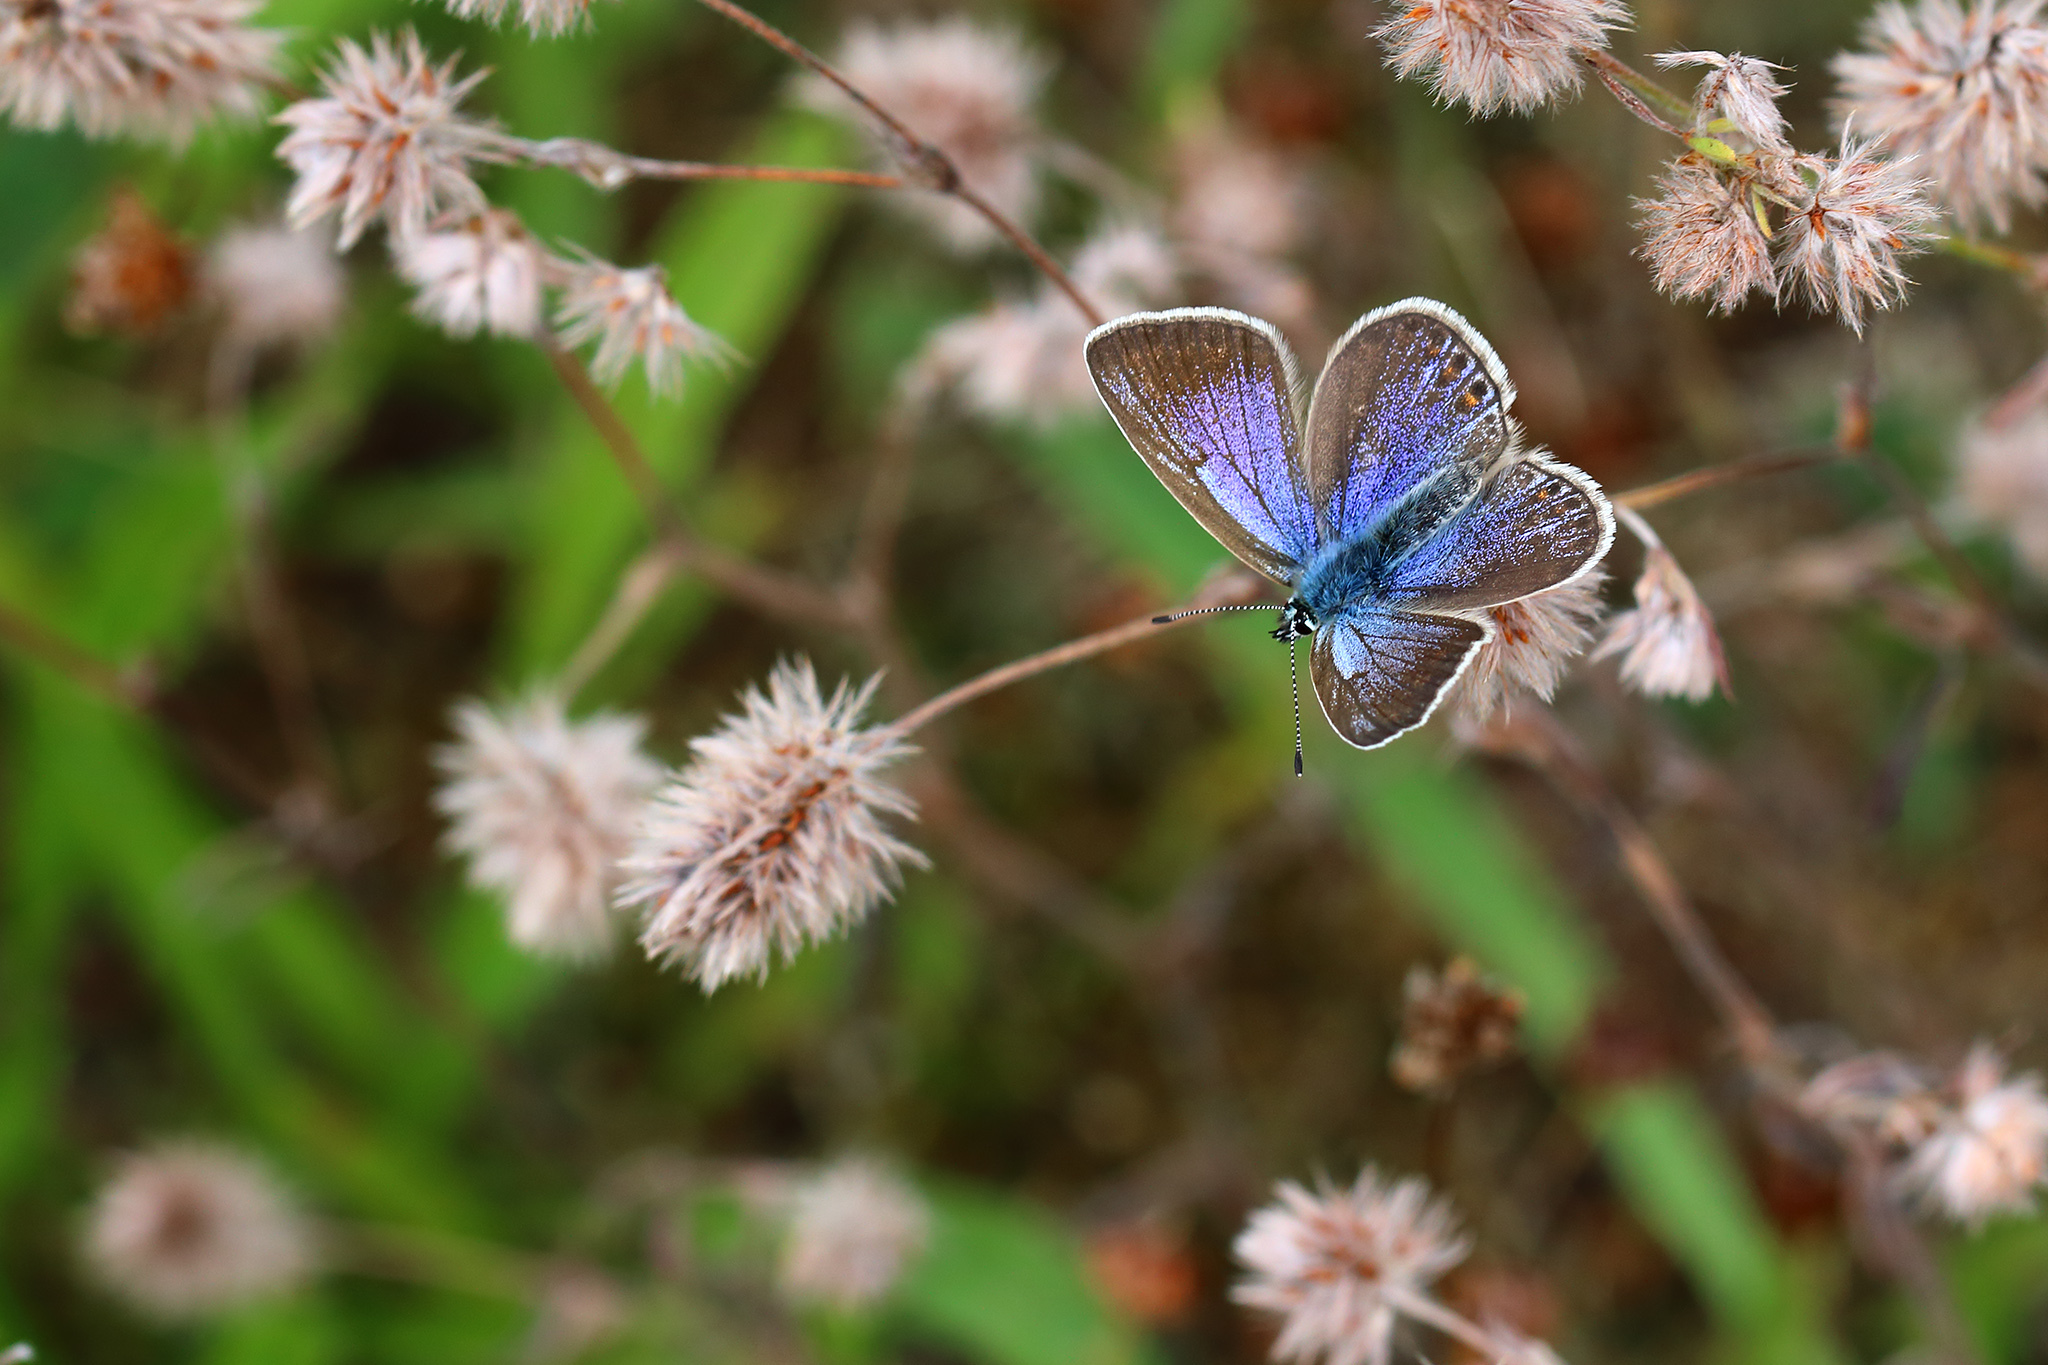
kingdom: Animalia
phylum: Arthropoda
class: Insecta
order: Lepidoptera
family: Lycaenidae
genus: Polyommatus
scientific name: Polyommatus icarus
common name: Common blue
